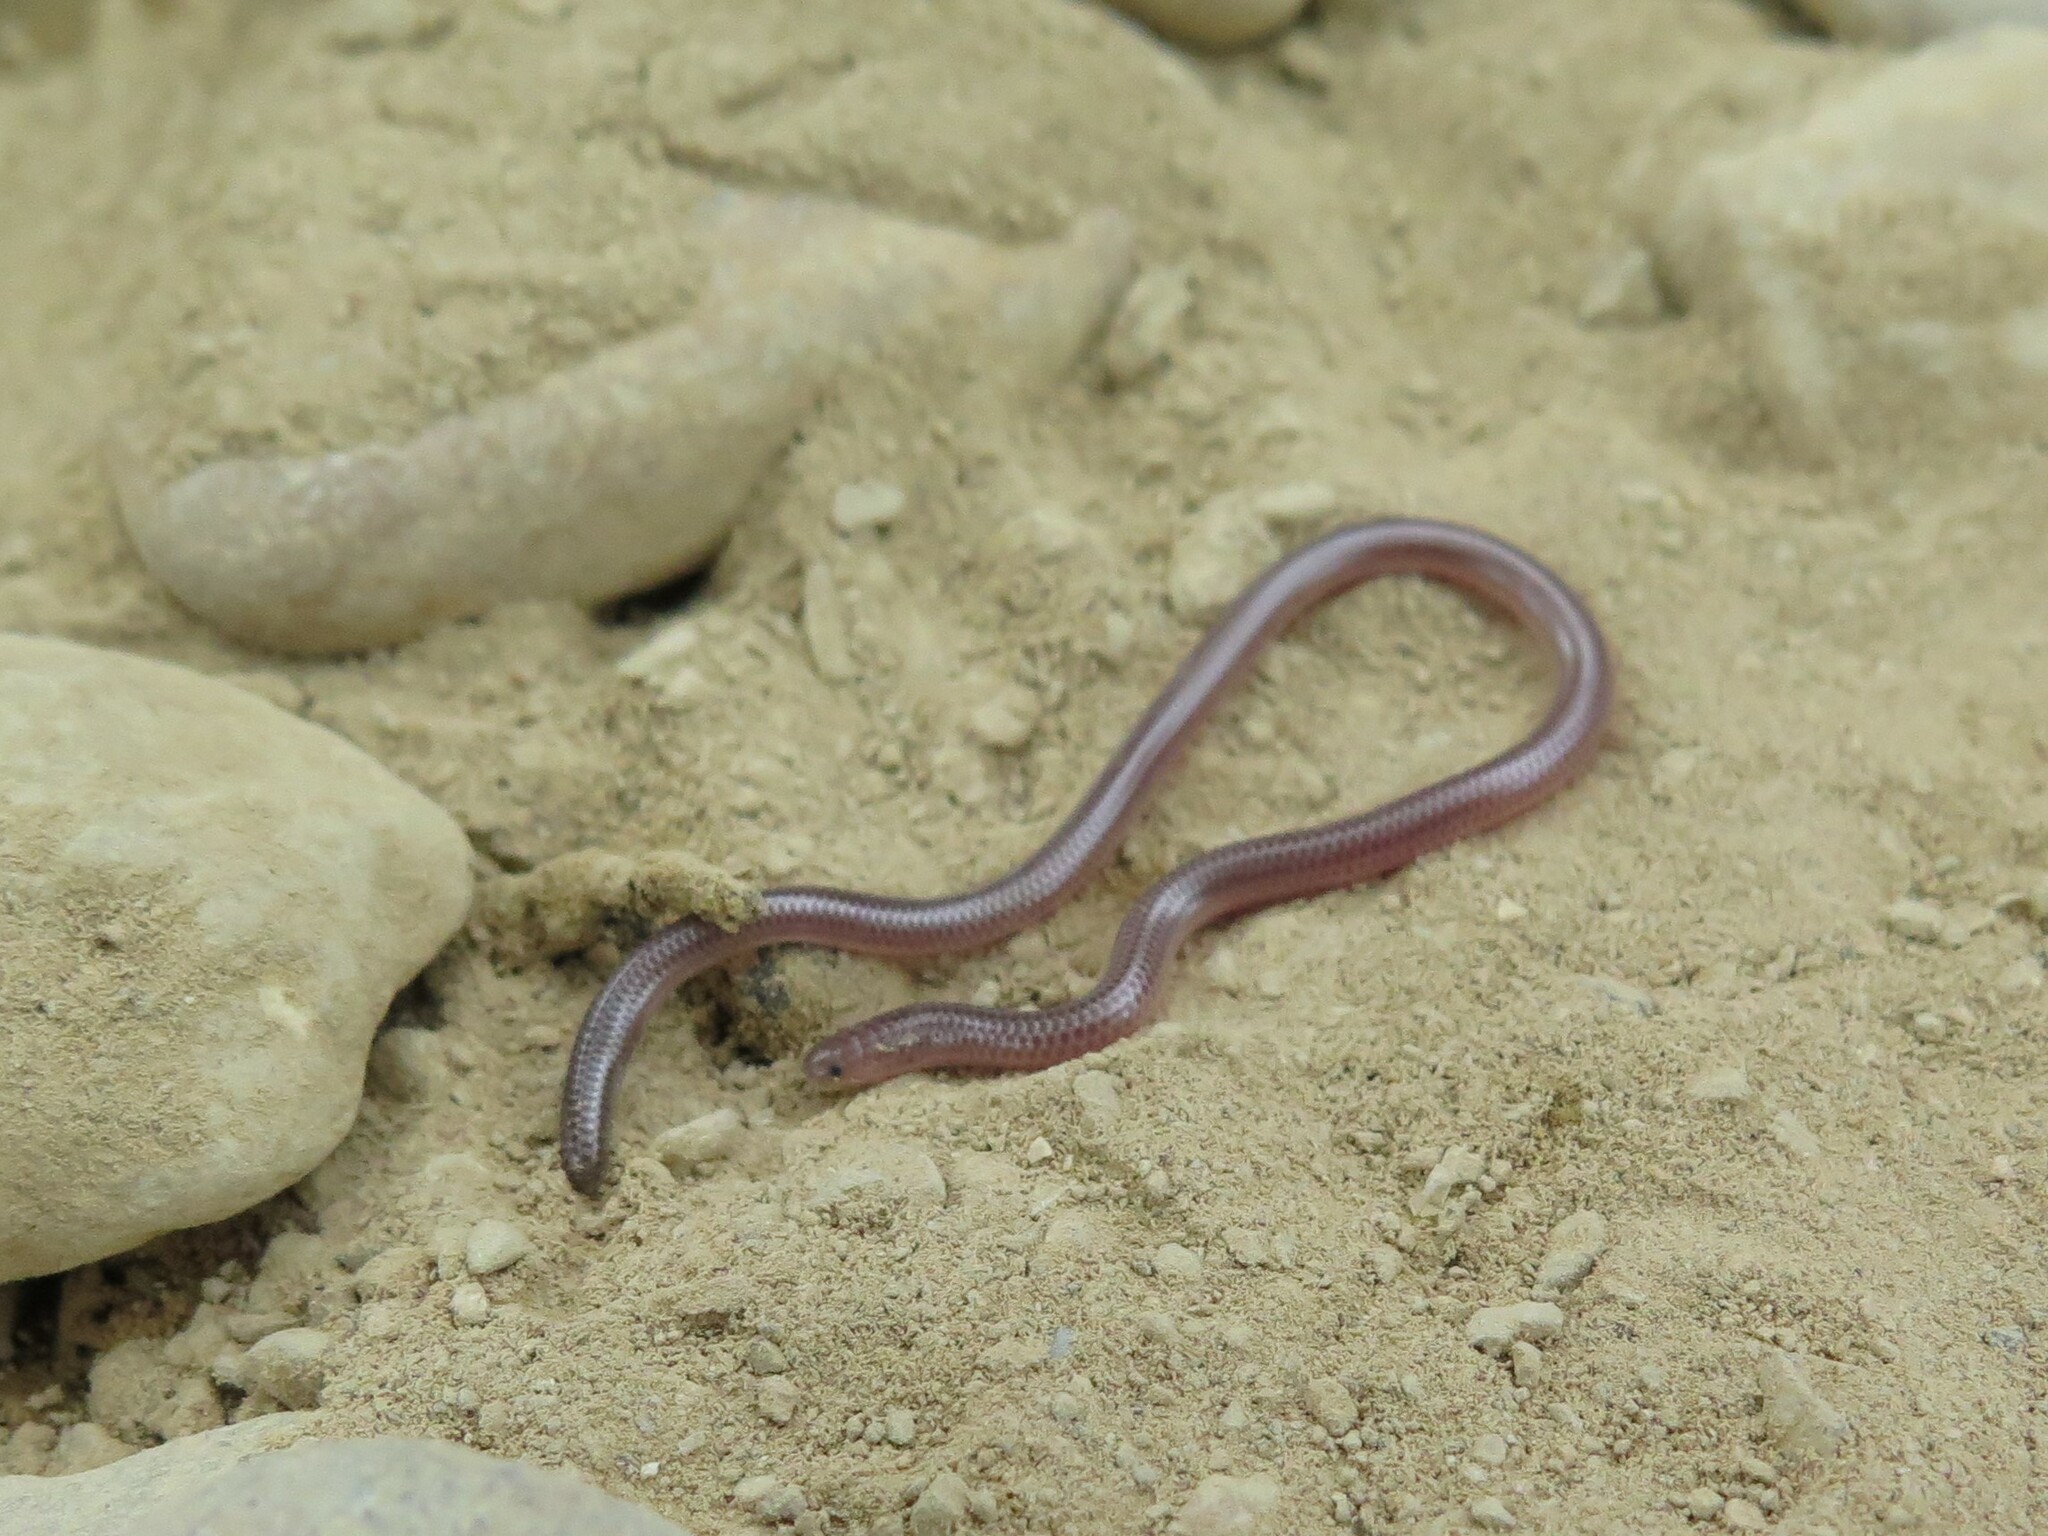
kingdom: Animalia
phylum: Chordata
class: Squamata
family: Leptotyphlopidae
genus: Rena
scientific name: Rena dulcis
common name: Texas blind snake
